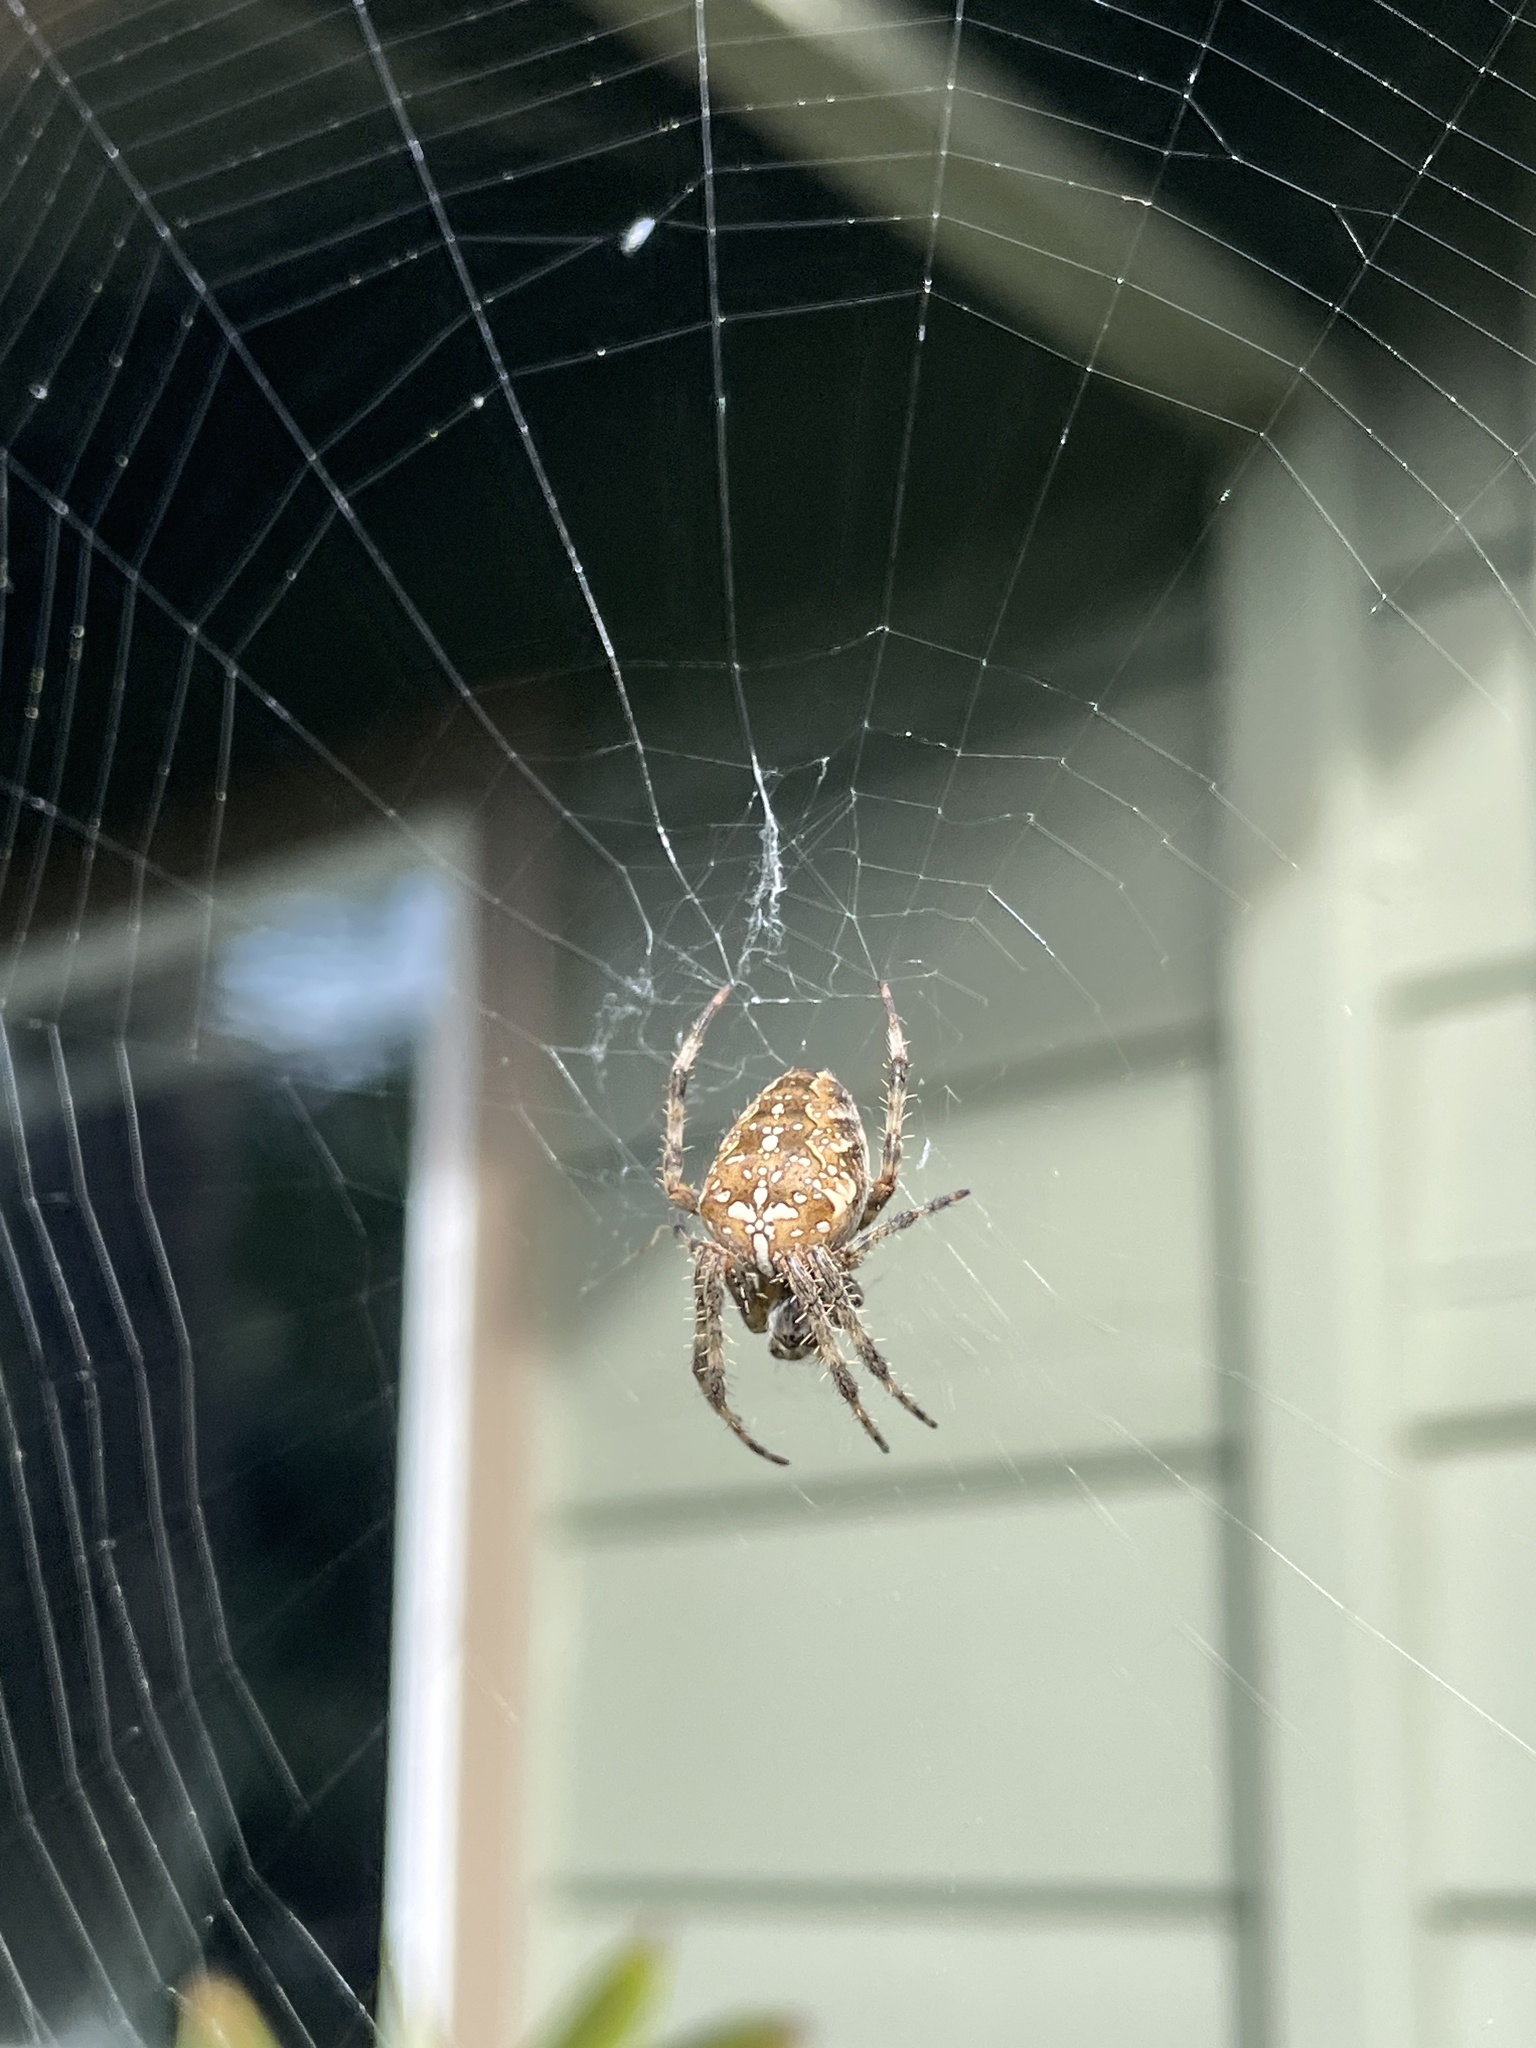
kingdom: Animalia
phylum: Arthropoda
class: Arachnida
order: Araneae
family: Araneidae
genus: Araneus
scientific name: Araneus diadematus
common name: Cross orbweaver
